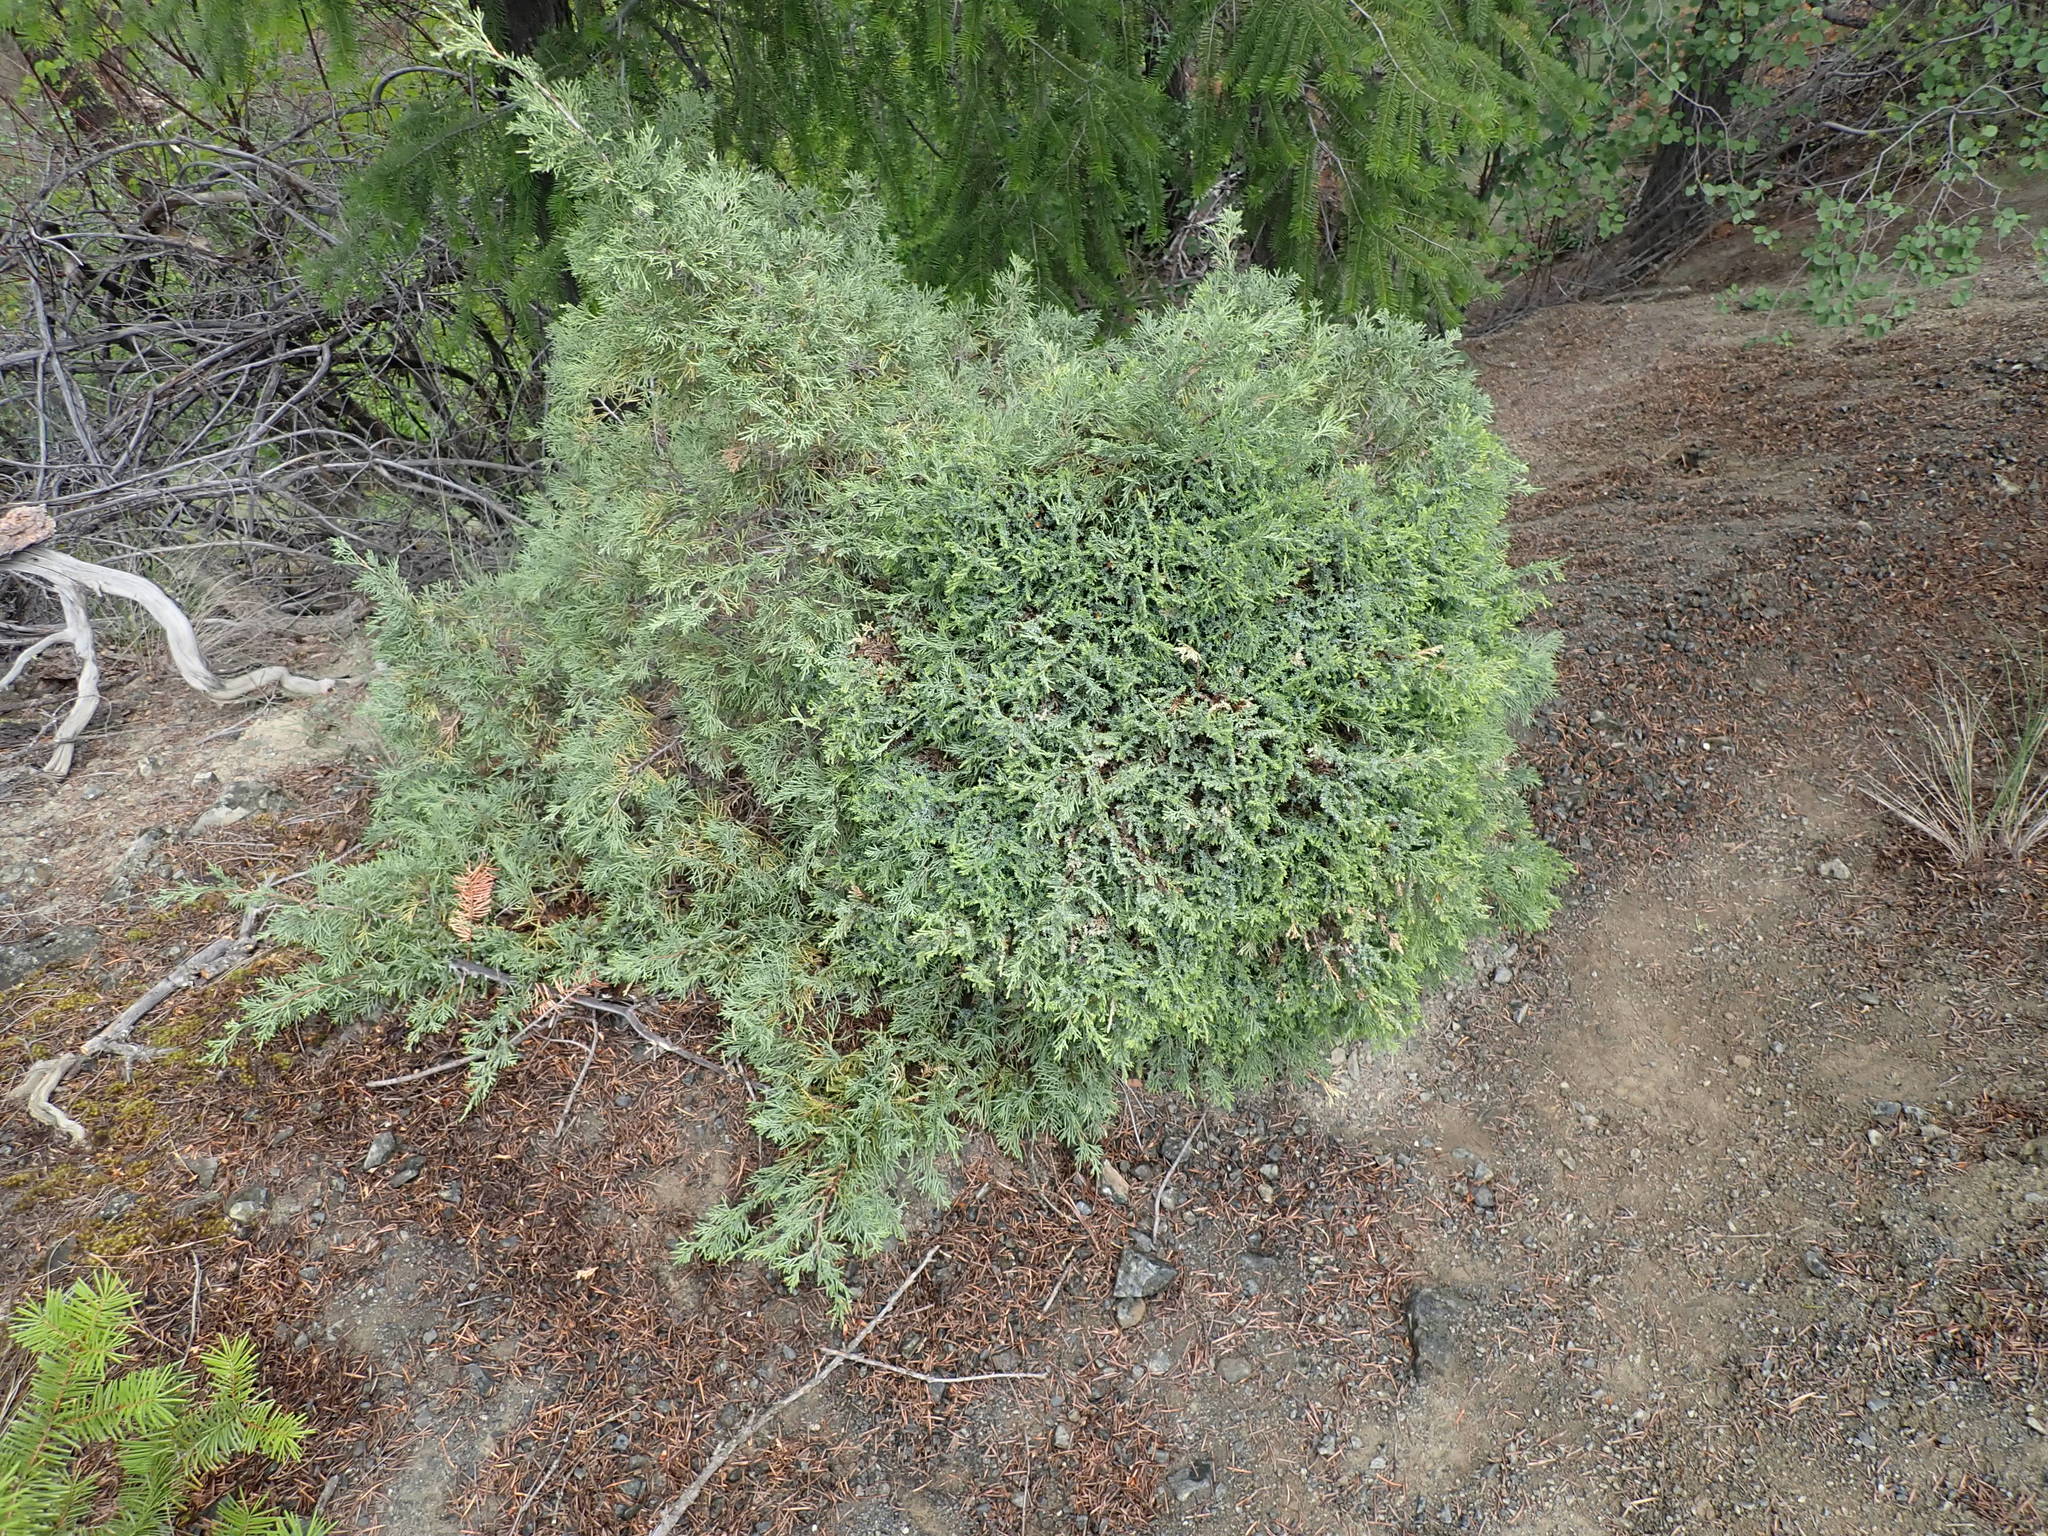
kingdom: Plantae
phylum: Tracheophyta
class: Pinopsida
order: Pinales
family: Cupressaceae
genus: Juniperus
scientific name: Juniperus scopulorum
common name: Rocky mountain juniper
